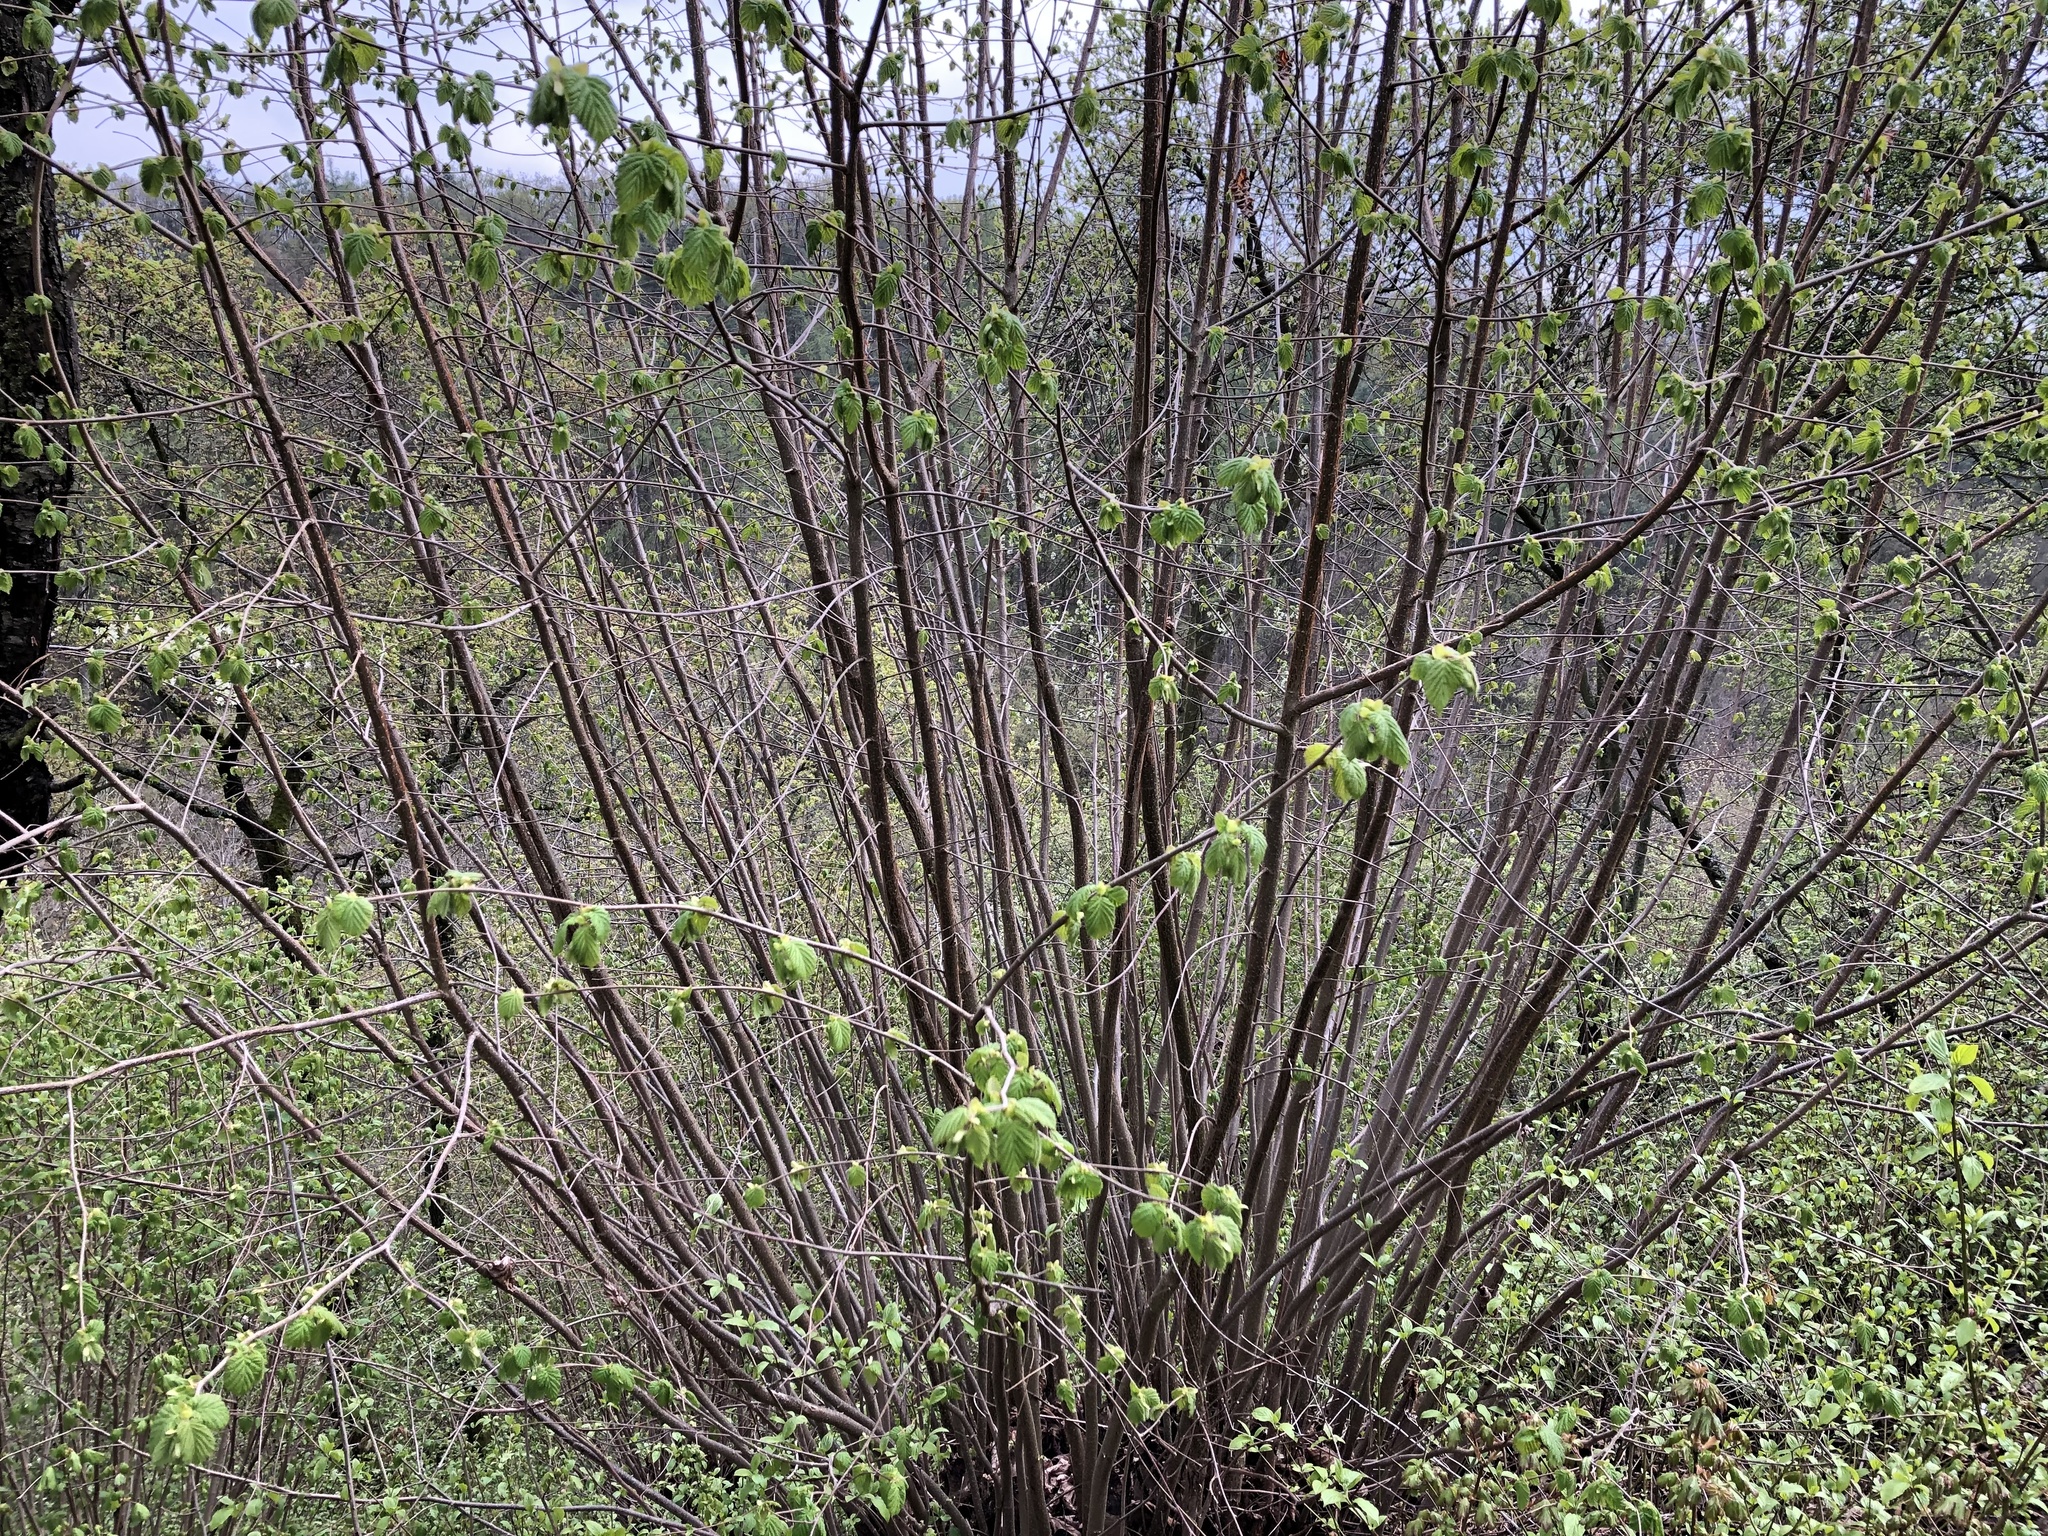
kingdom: Plantae
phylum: Tracheophyta
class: Magnoliopsida
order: Fagales
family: Betulaceae
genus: Corylus
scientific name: Corylus avellana
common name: European hazel
